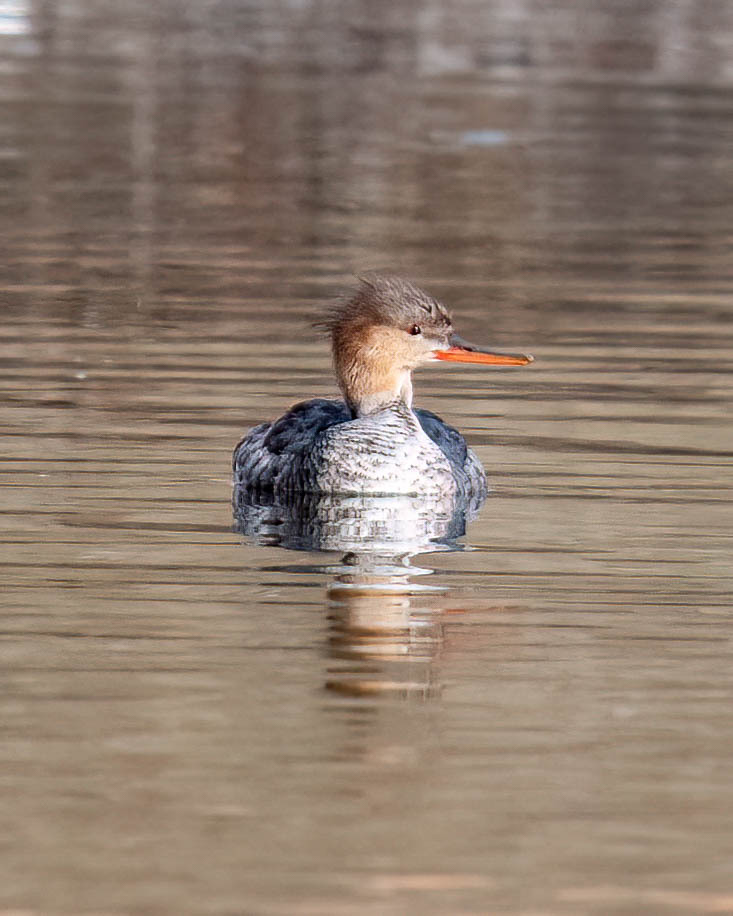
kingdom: Animalia
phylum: Chordata
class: Aves
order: Anseriformes
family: Anatidae
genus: Mergus
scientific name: Mergus serrator
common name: Red-breasted merganser
